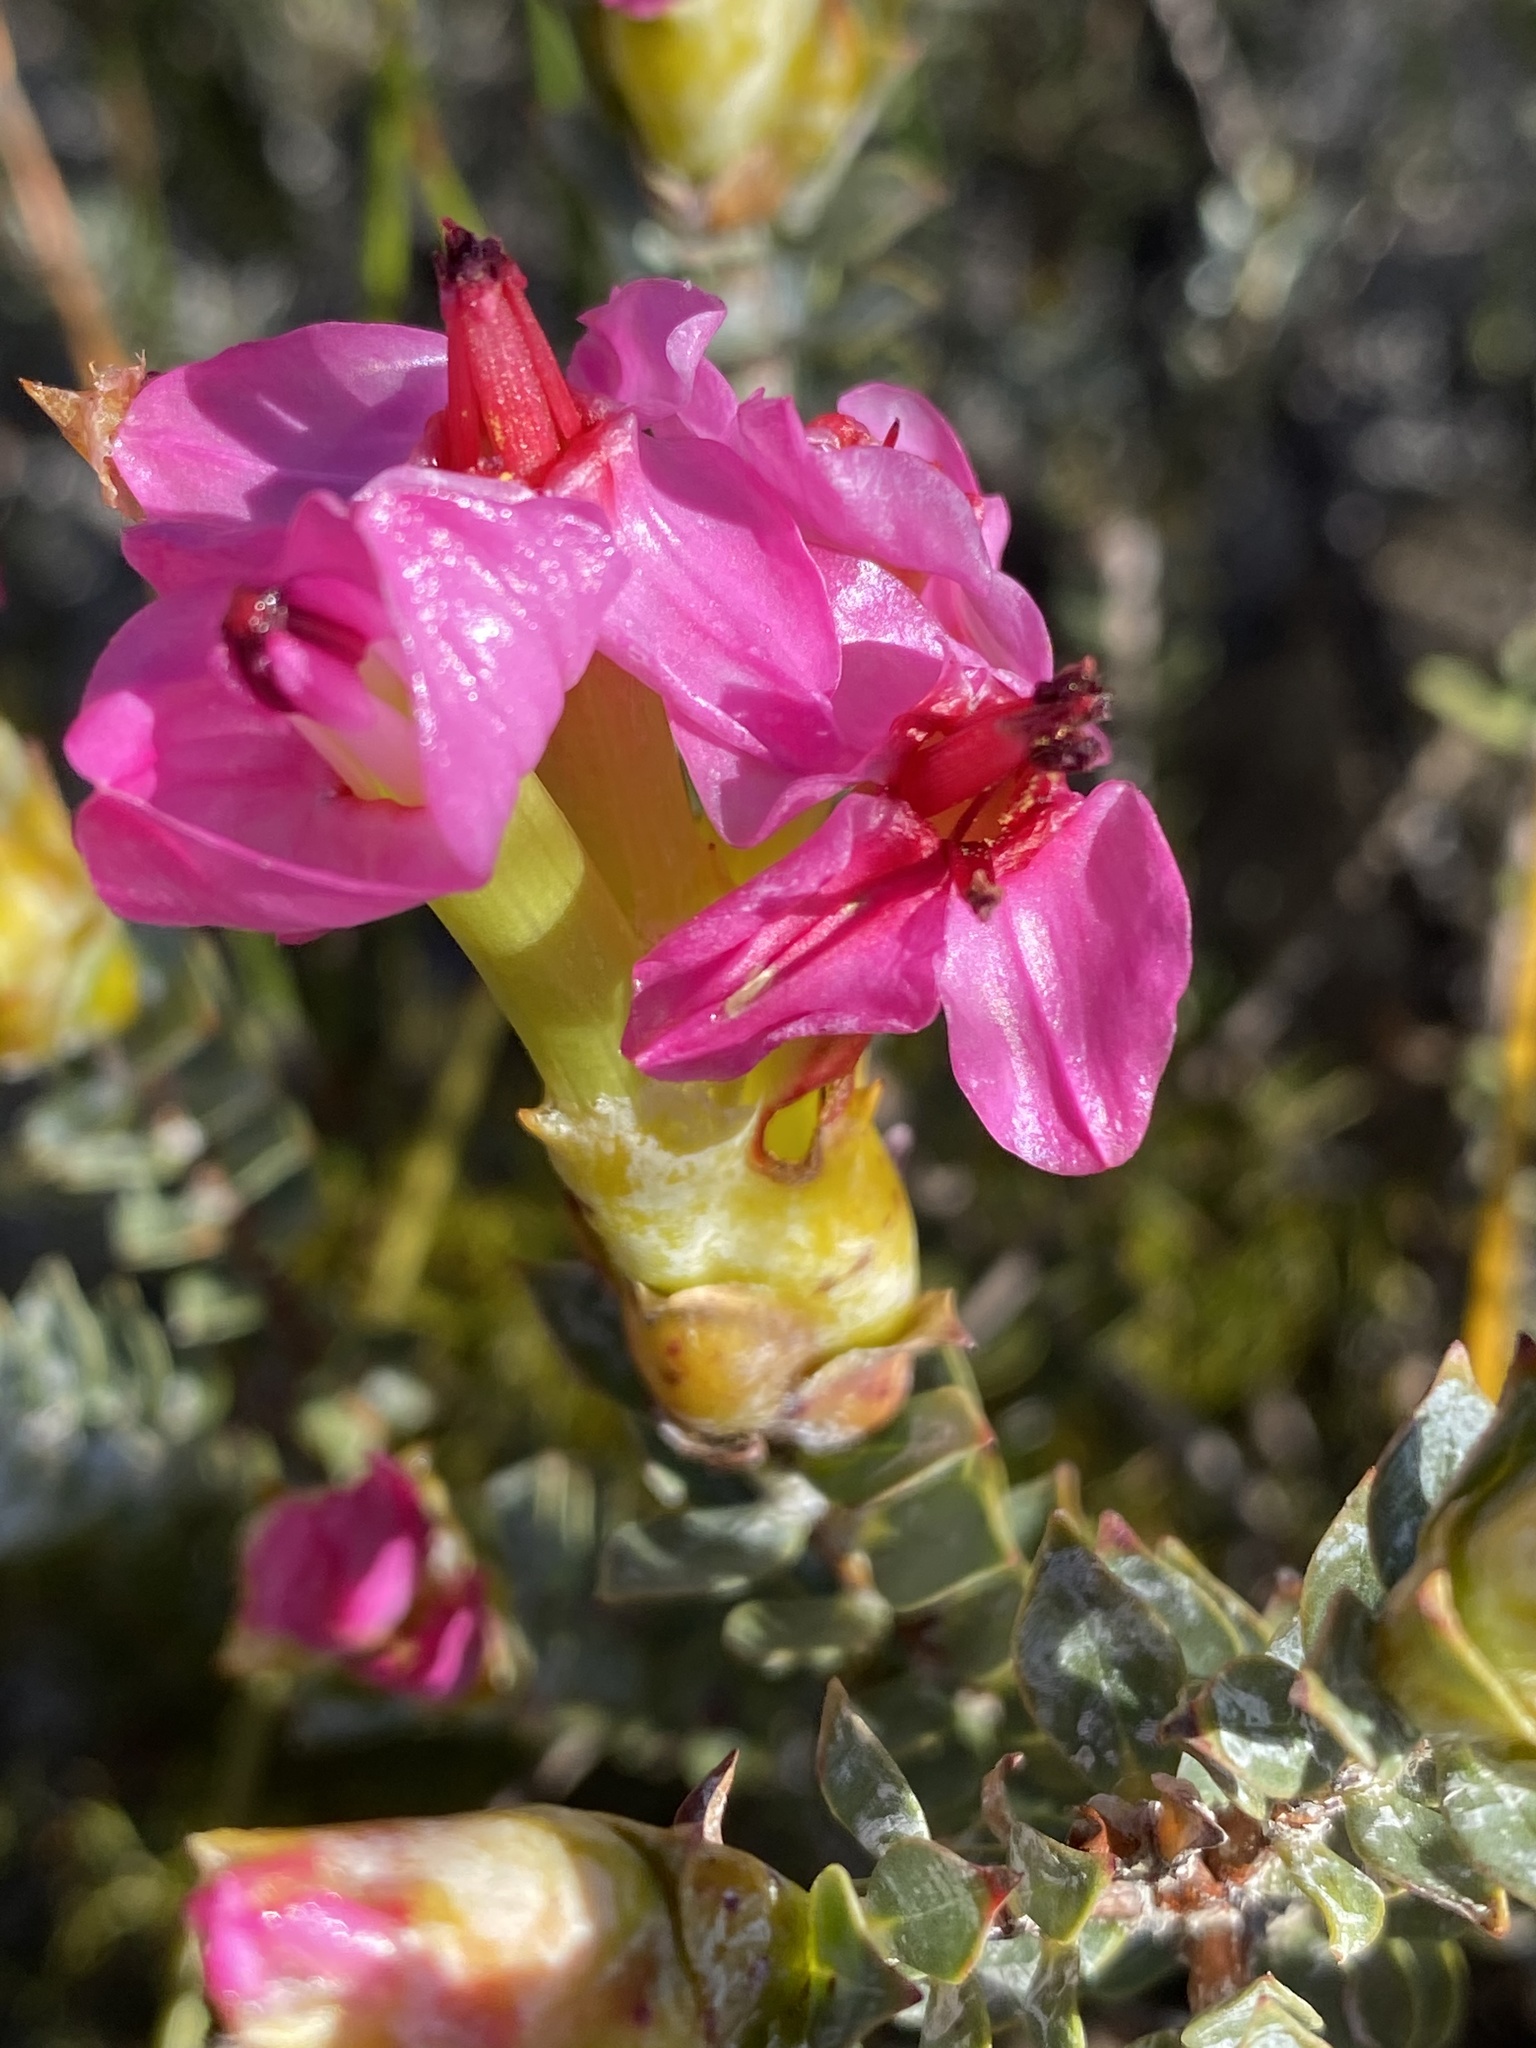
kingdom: Plantae
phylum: Tracheophyta
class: Magnoliopsida
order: Myrtales
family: Penaeaceae
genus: Saltera
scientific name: Saltera sarcocolla
